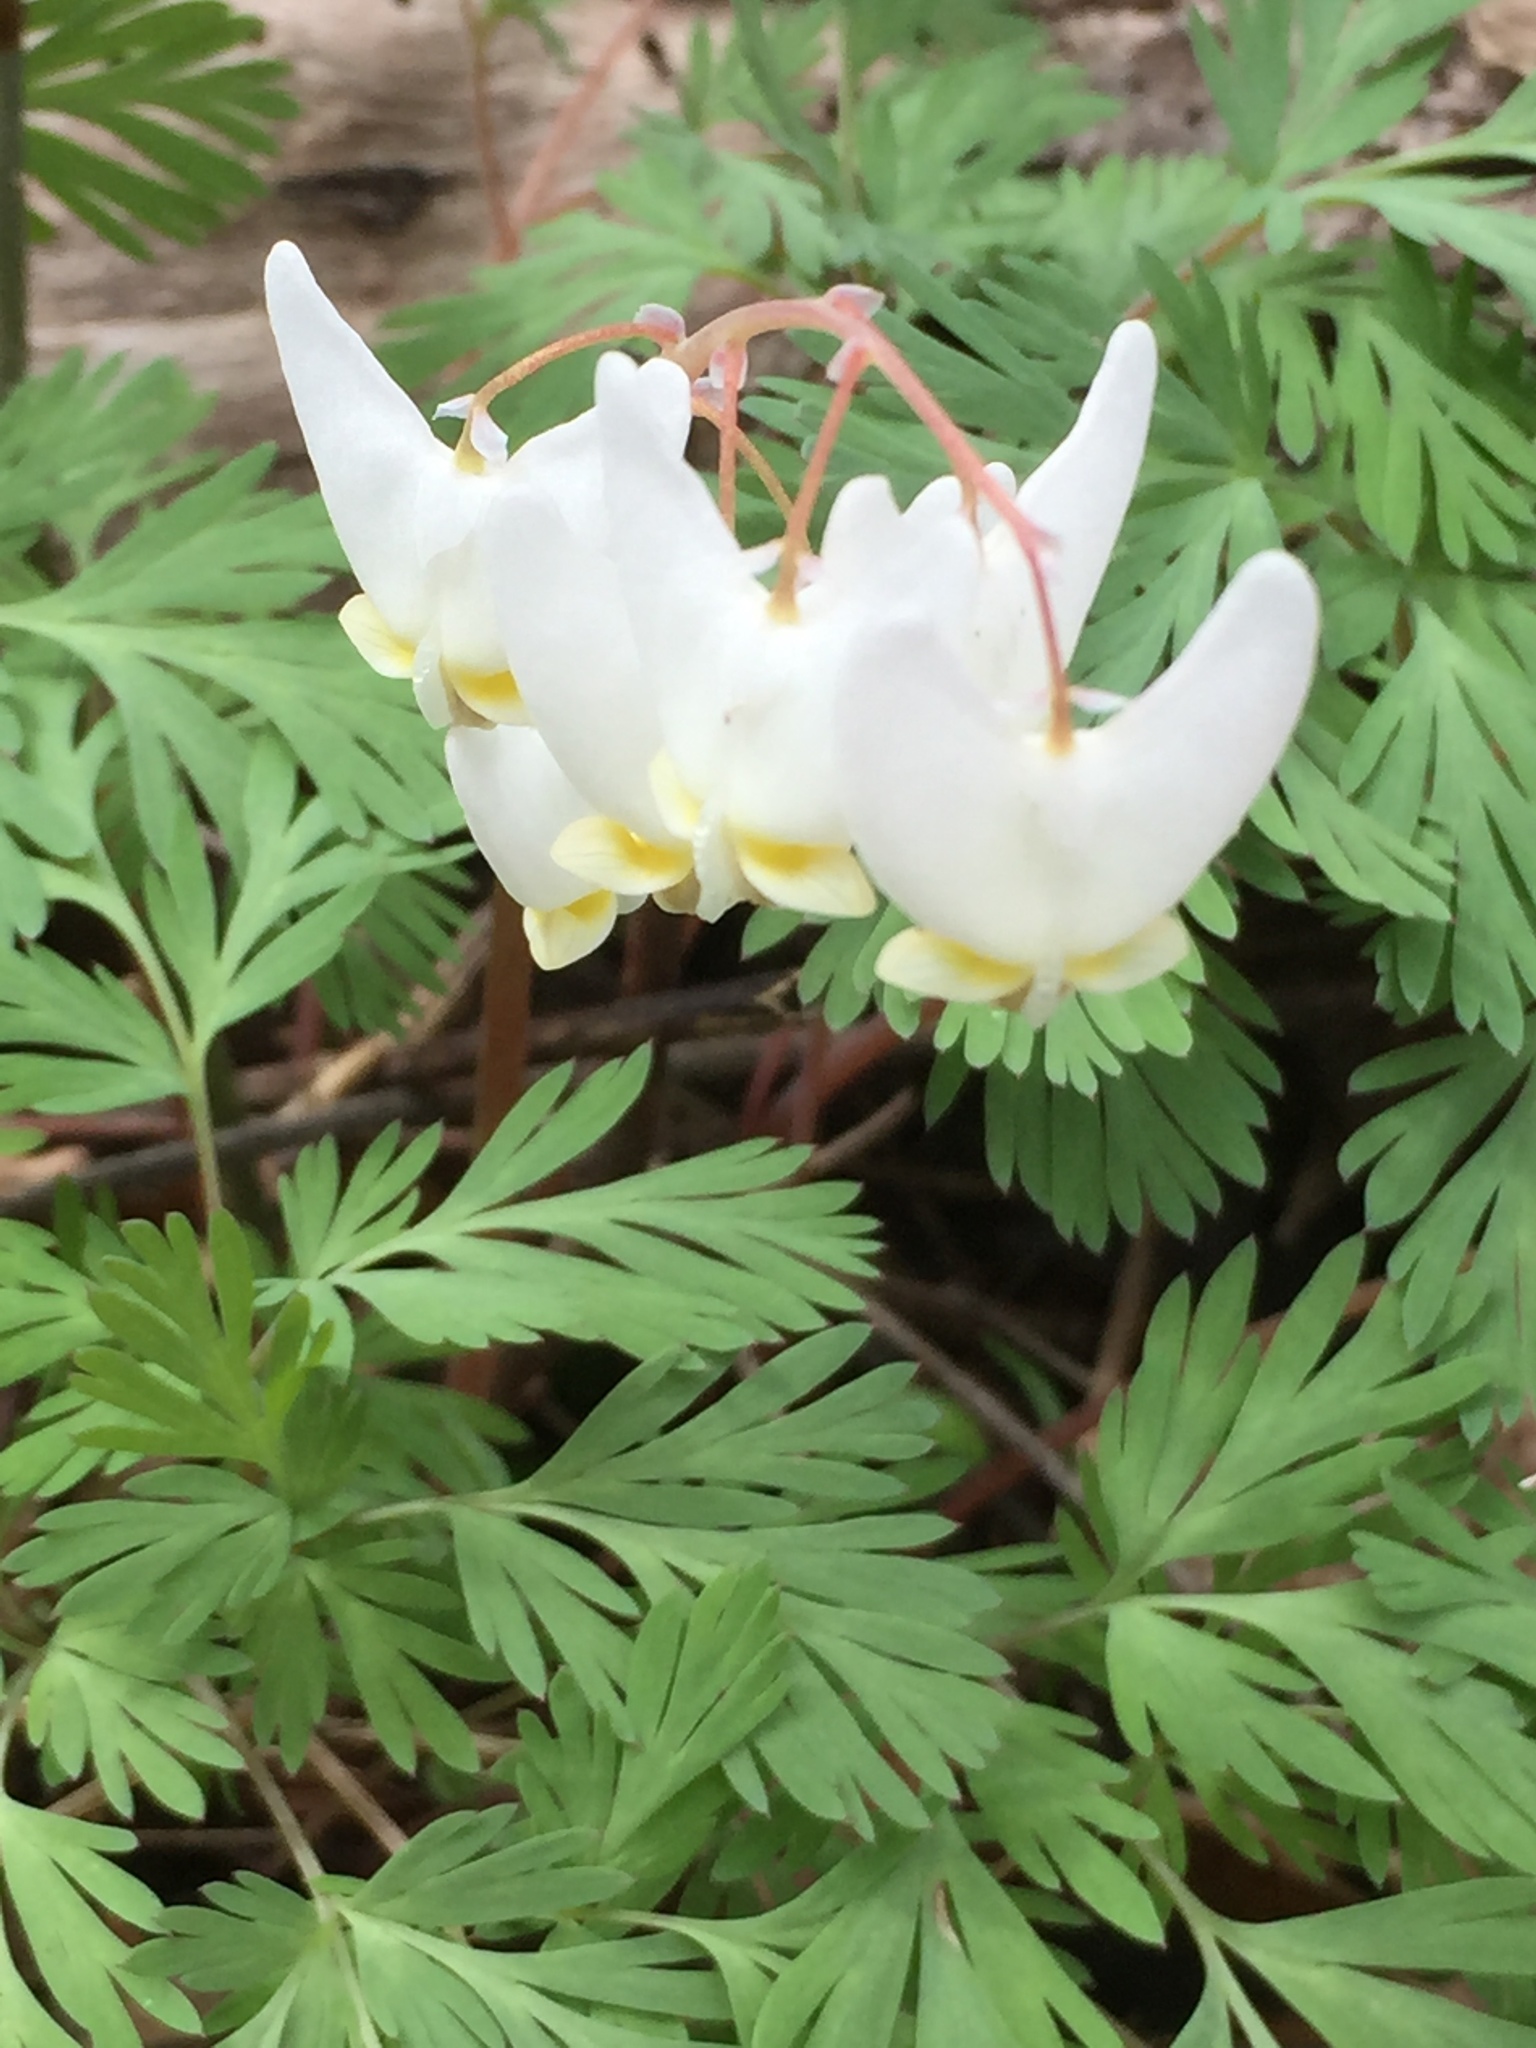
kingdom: Plantae
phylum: Tracheophyta
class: Magnoliopsida
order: Ranunculales
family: Papaveraceae
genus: Dicentra
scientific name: Dicentra cucullaria
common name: Dutchman's breeches
